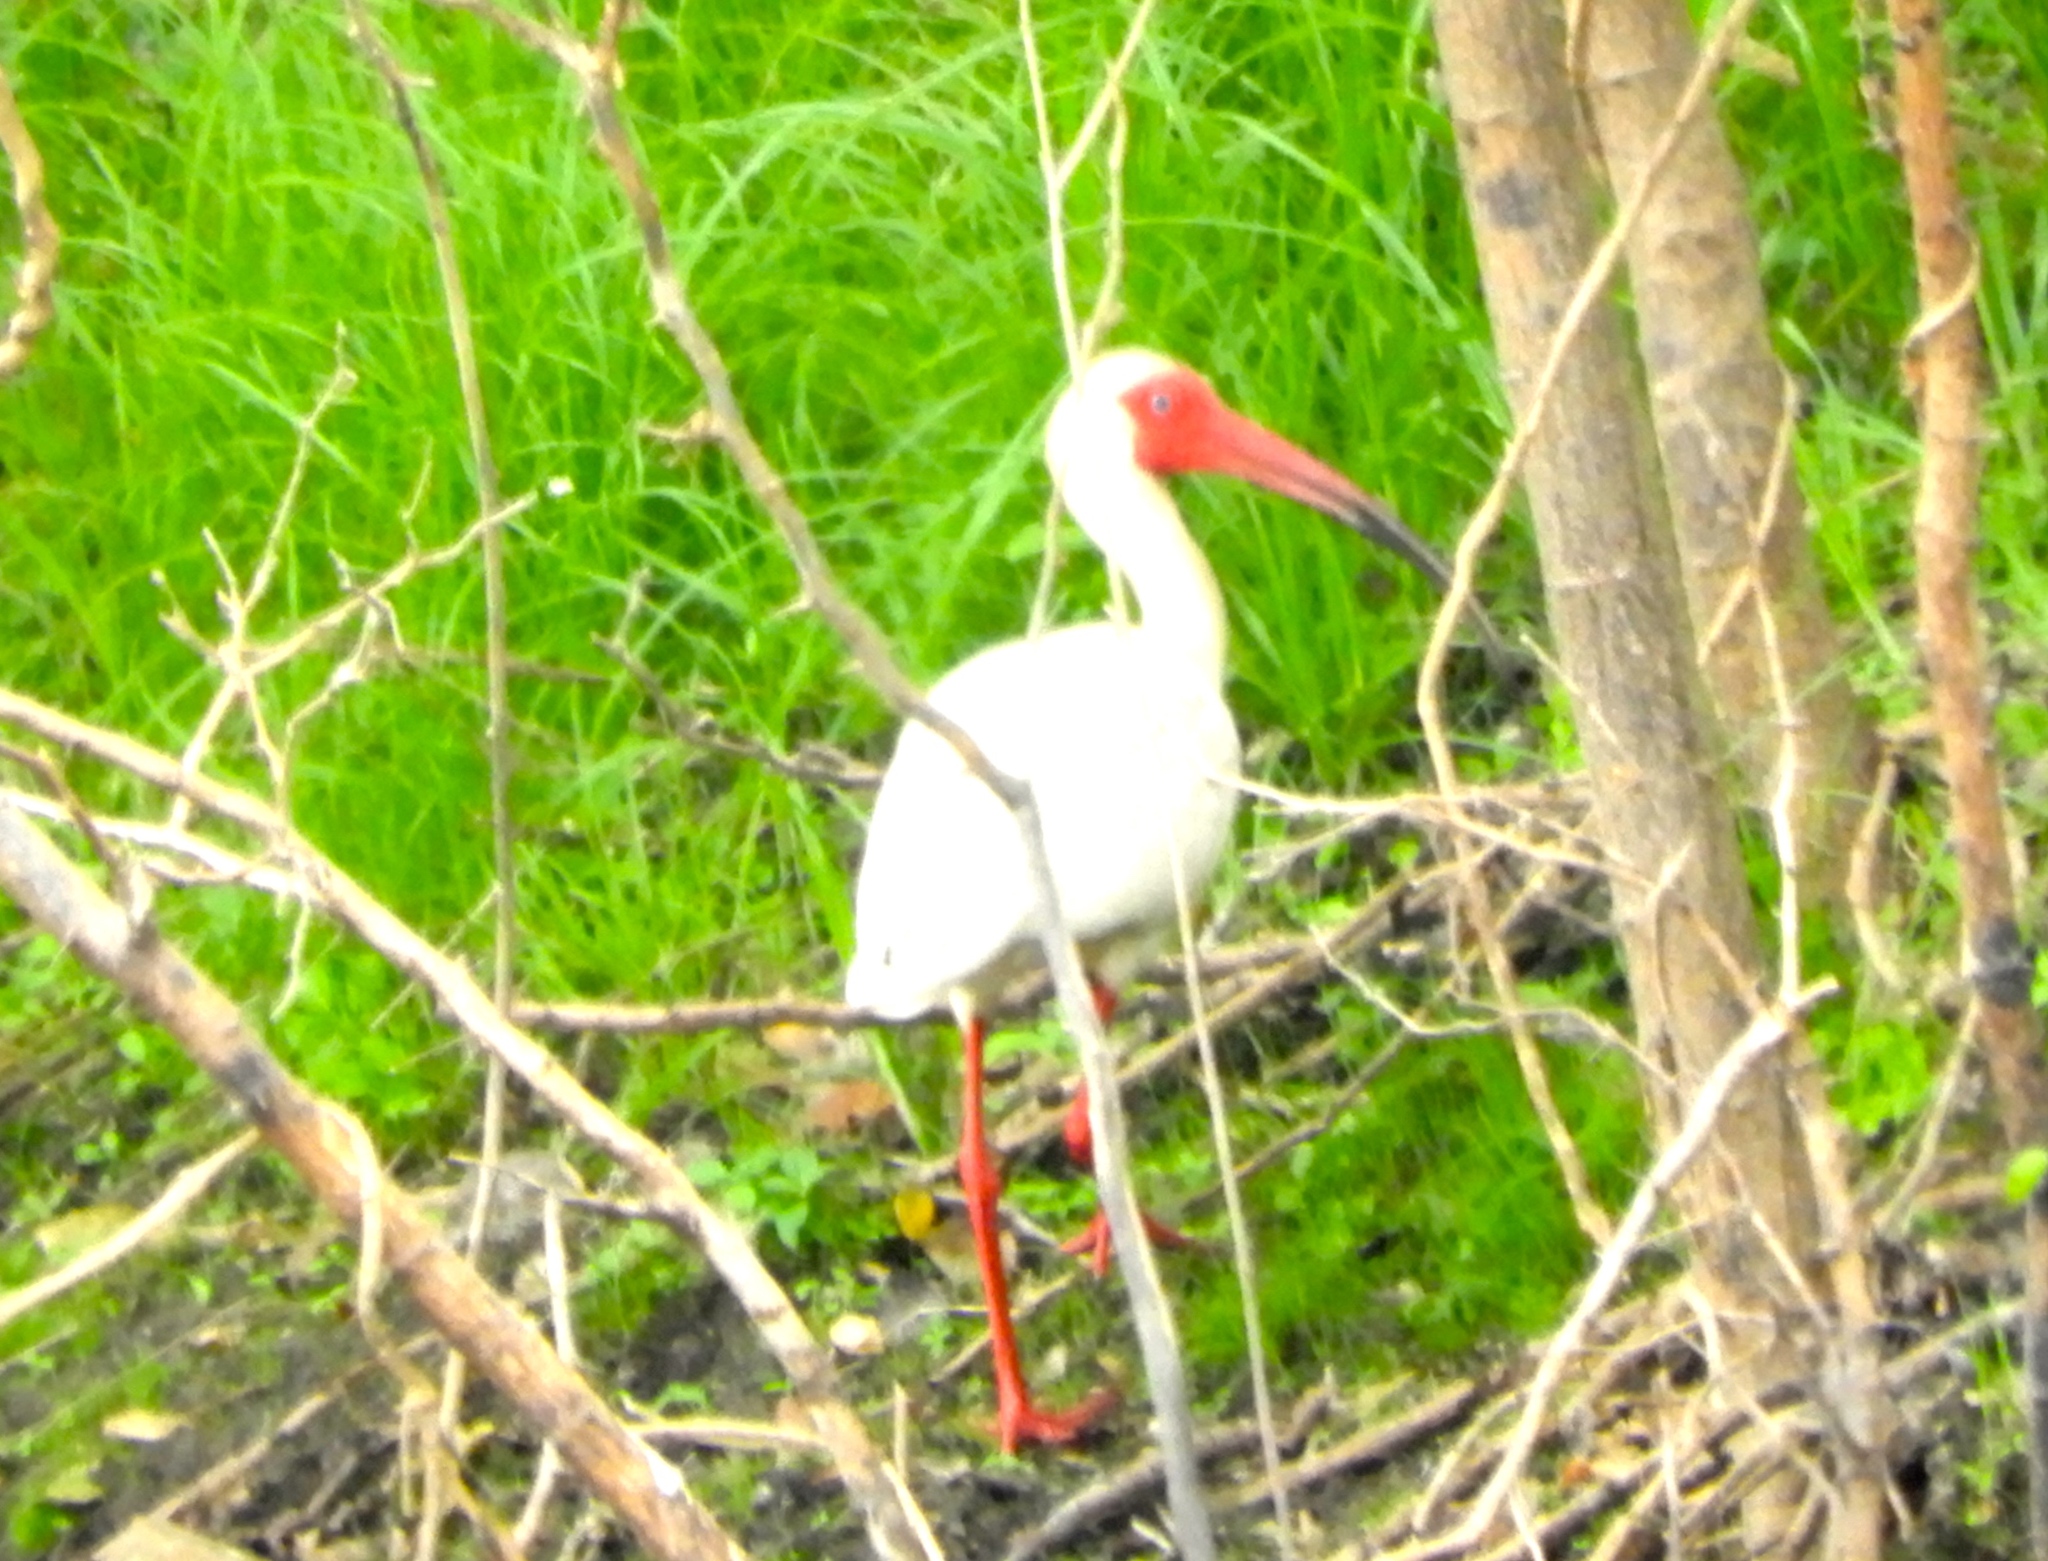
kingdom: Animalia
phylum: Chordata
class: Aves
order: Pelecaniformes
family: Threskiornithidae
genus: Eudocimus
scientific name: Eudocimus albus
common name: White ibis
